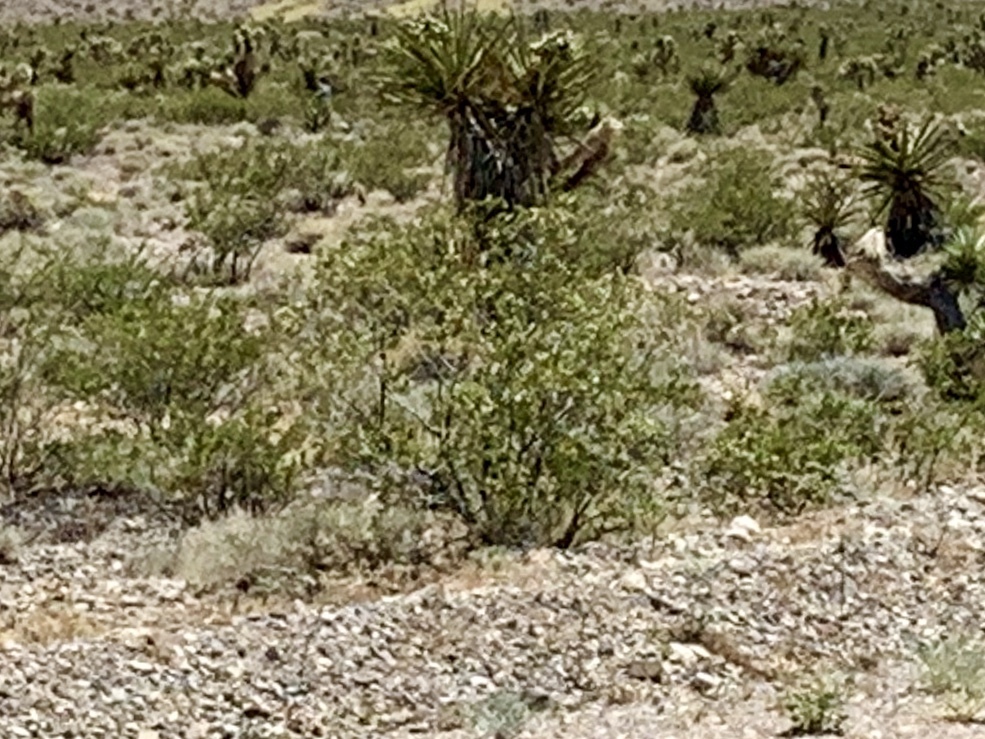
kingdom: Plantae
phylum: Tracheophyta
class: Magnoliopsida
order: Zygophyllales
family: Zygophyllaceae
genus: Larrea
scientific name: Larrea tridentata
